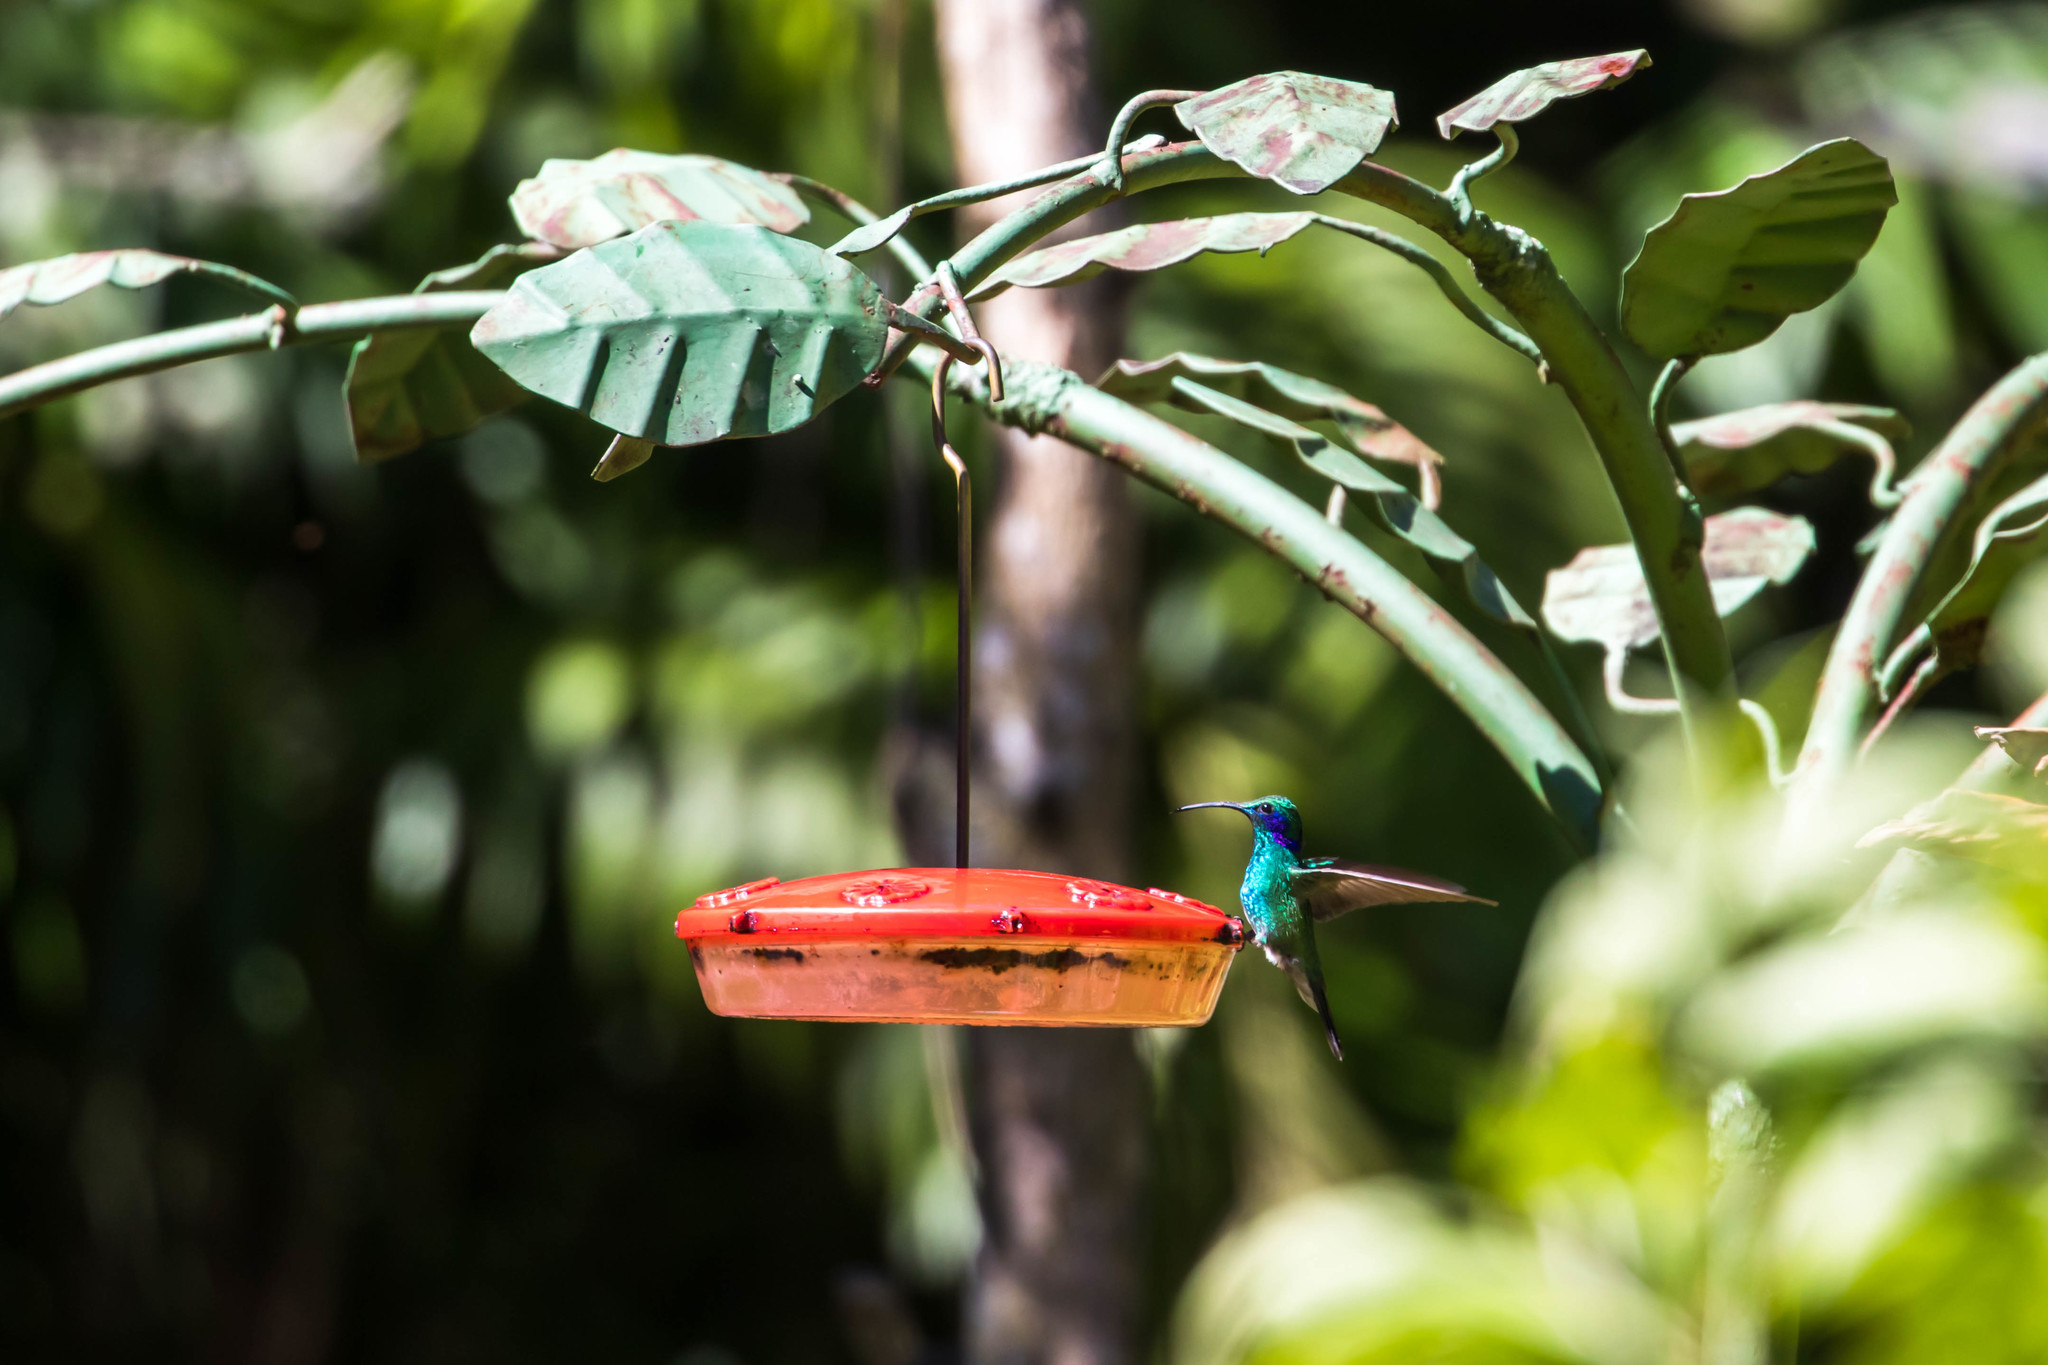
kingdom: Animalia
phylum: Chordata
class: Aves
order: Apodiformes
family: Trochilidae
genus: Colibri
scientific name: Colibri cyanotus
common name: Lesser violetear
